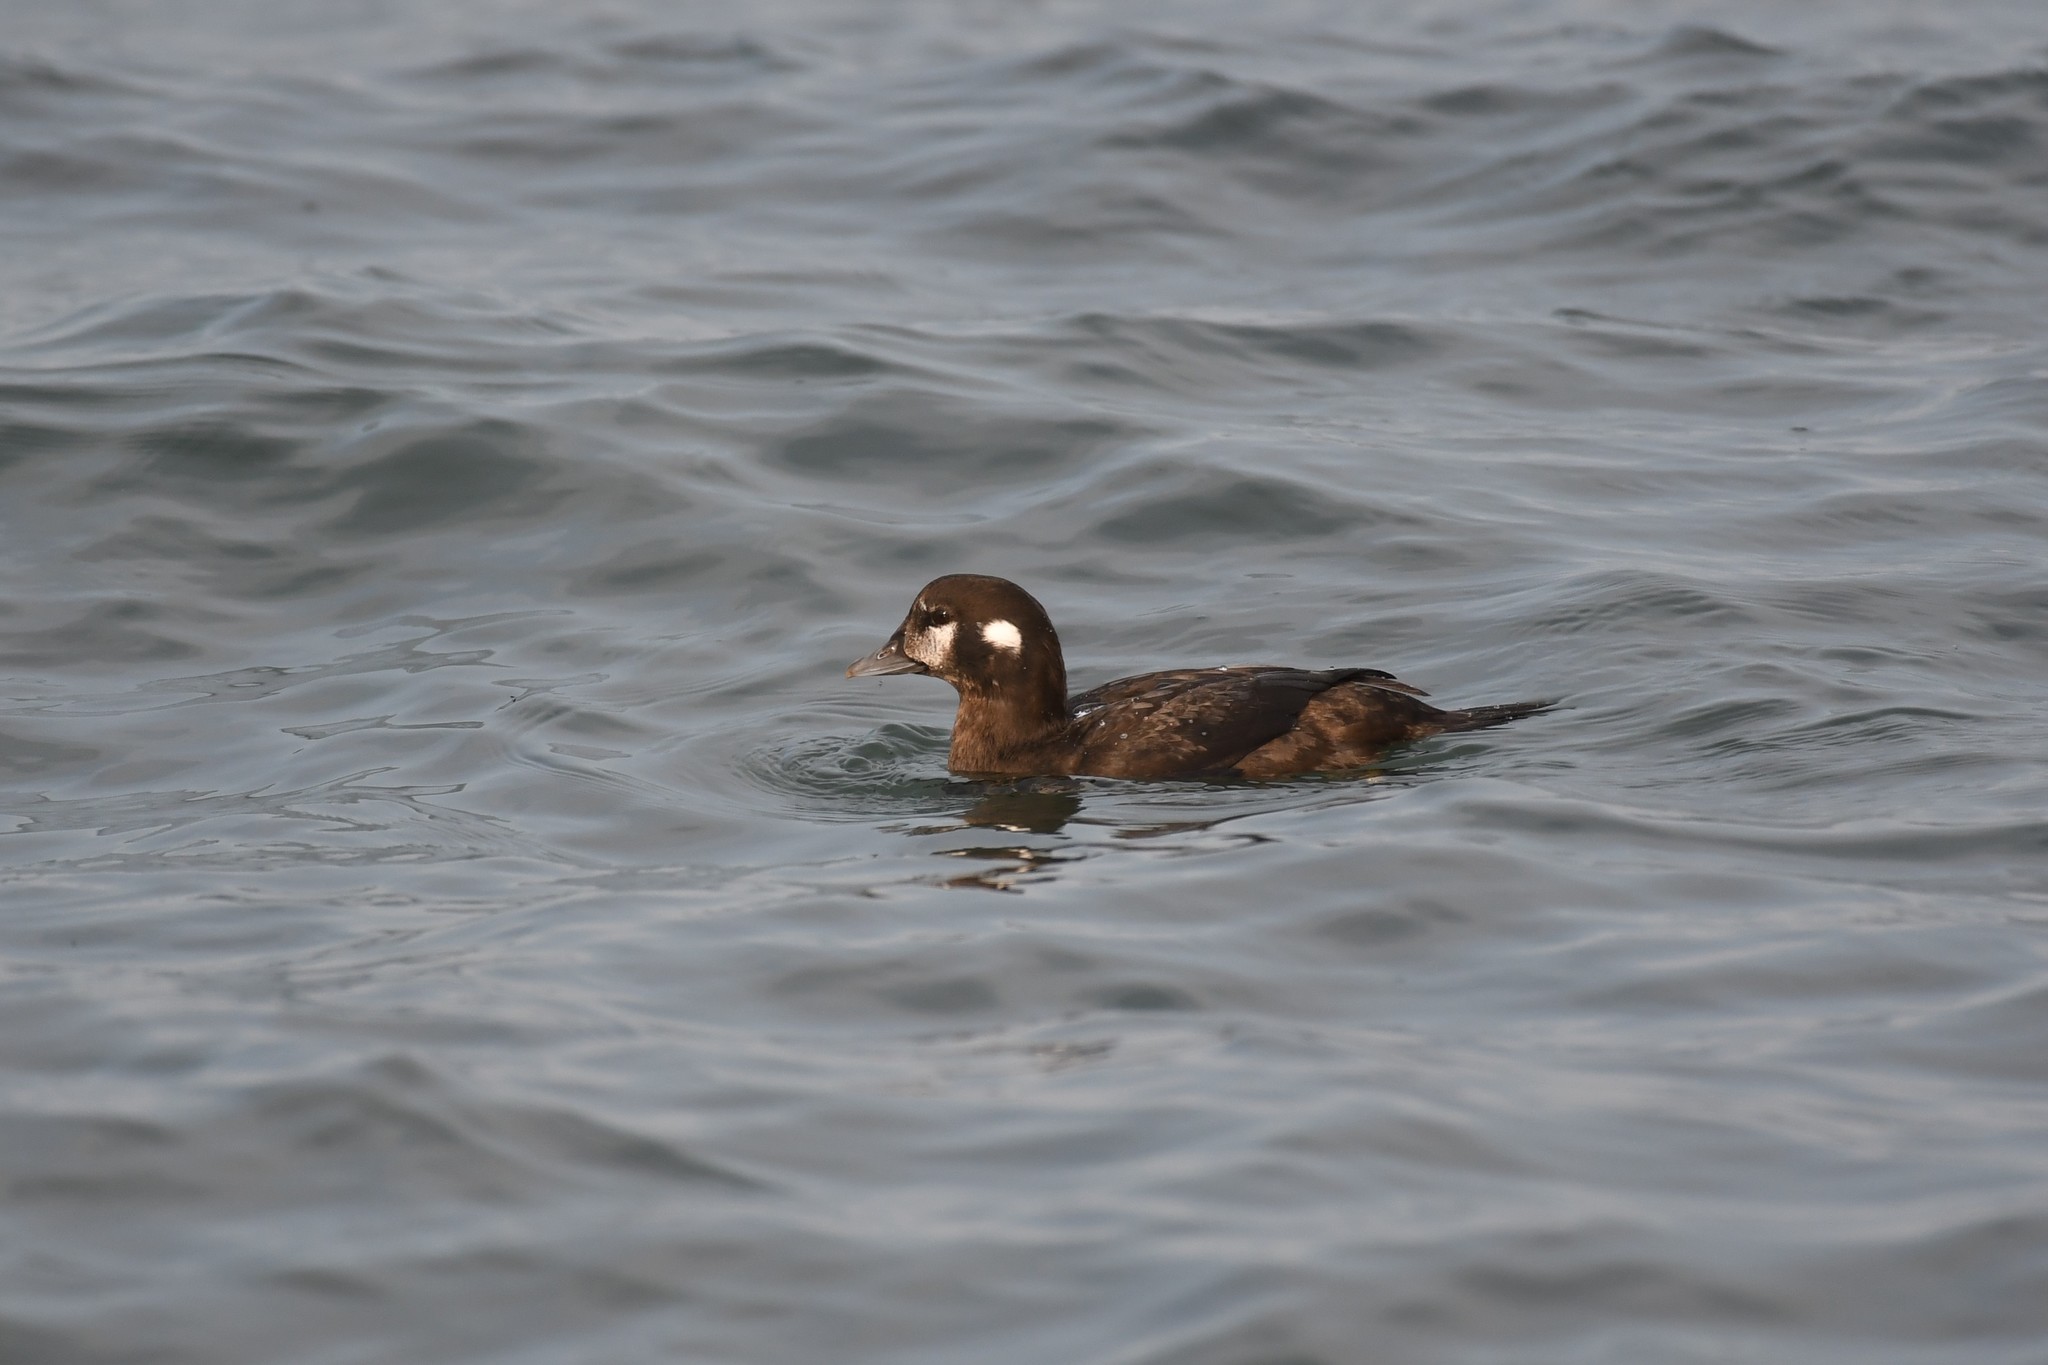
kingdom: Animalia
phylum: Chordata
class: Aves
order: Anseriformes
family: Anatidae
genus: Histrionicus
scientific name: Histrionicus histrionicus
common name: Harlequin duck
